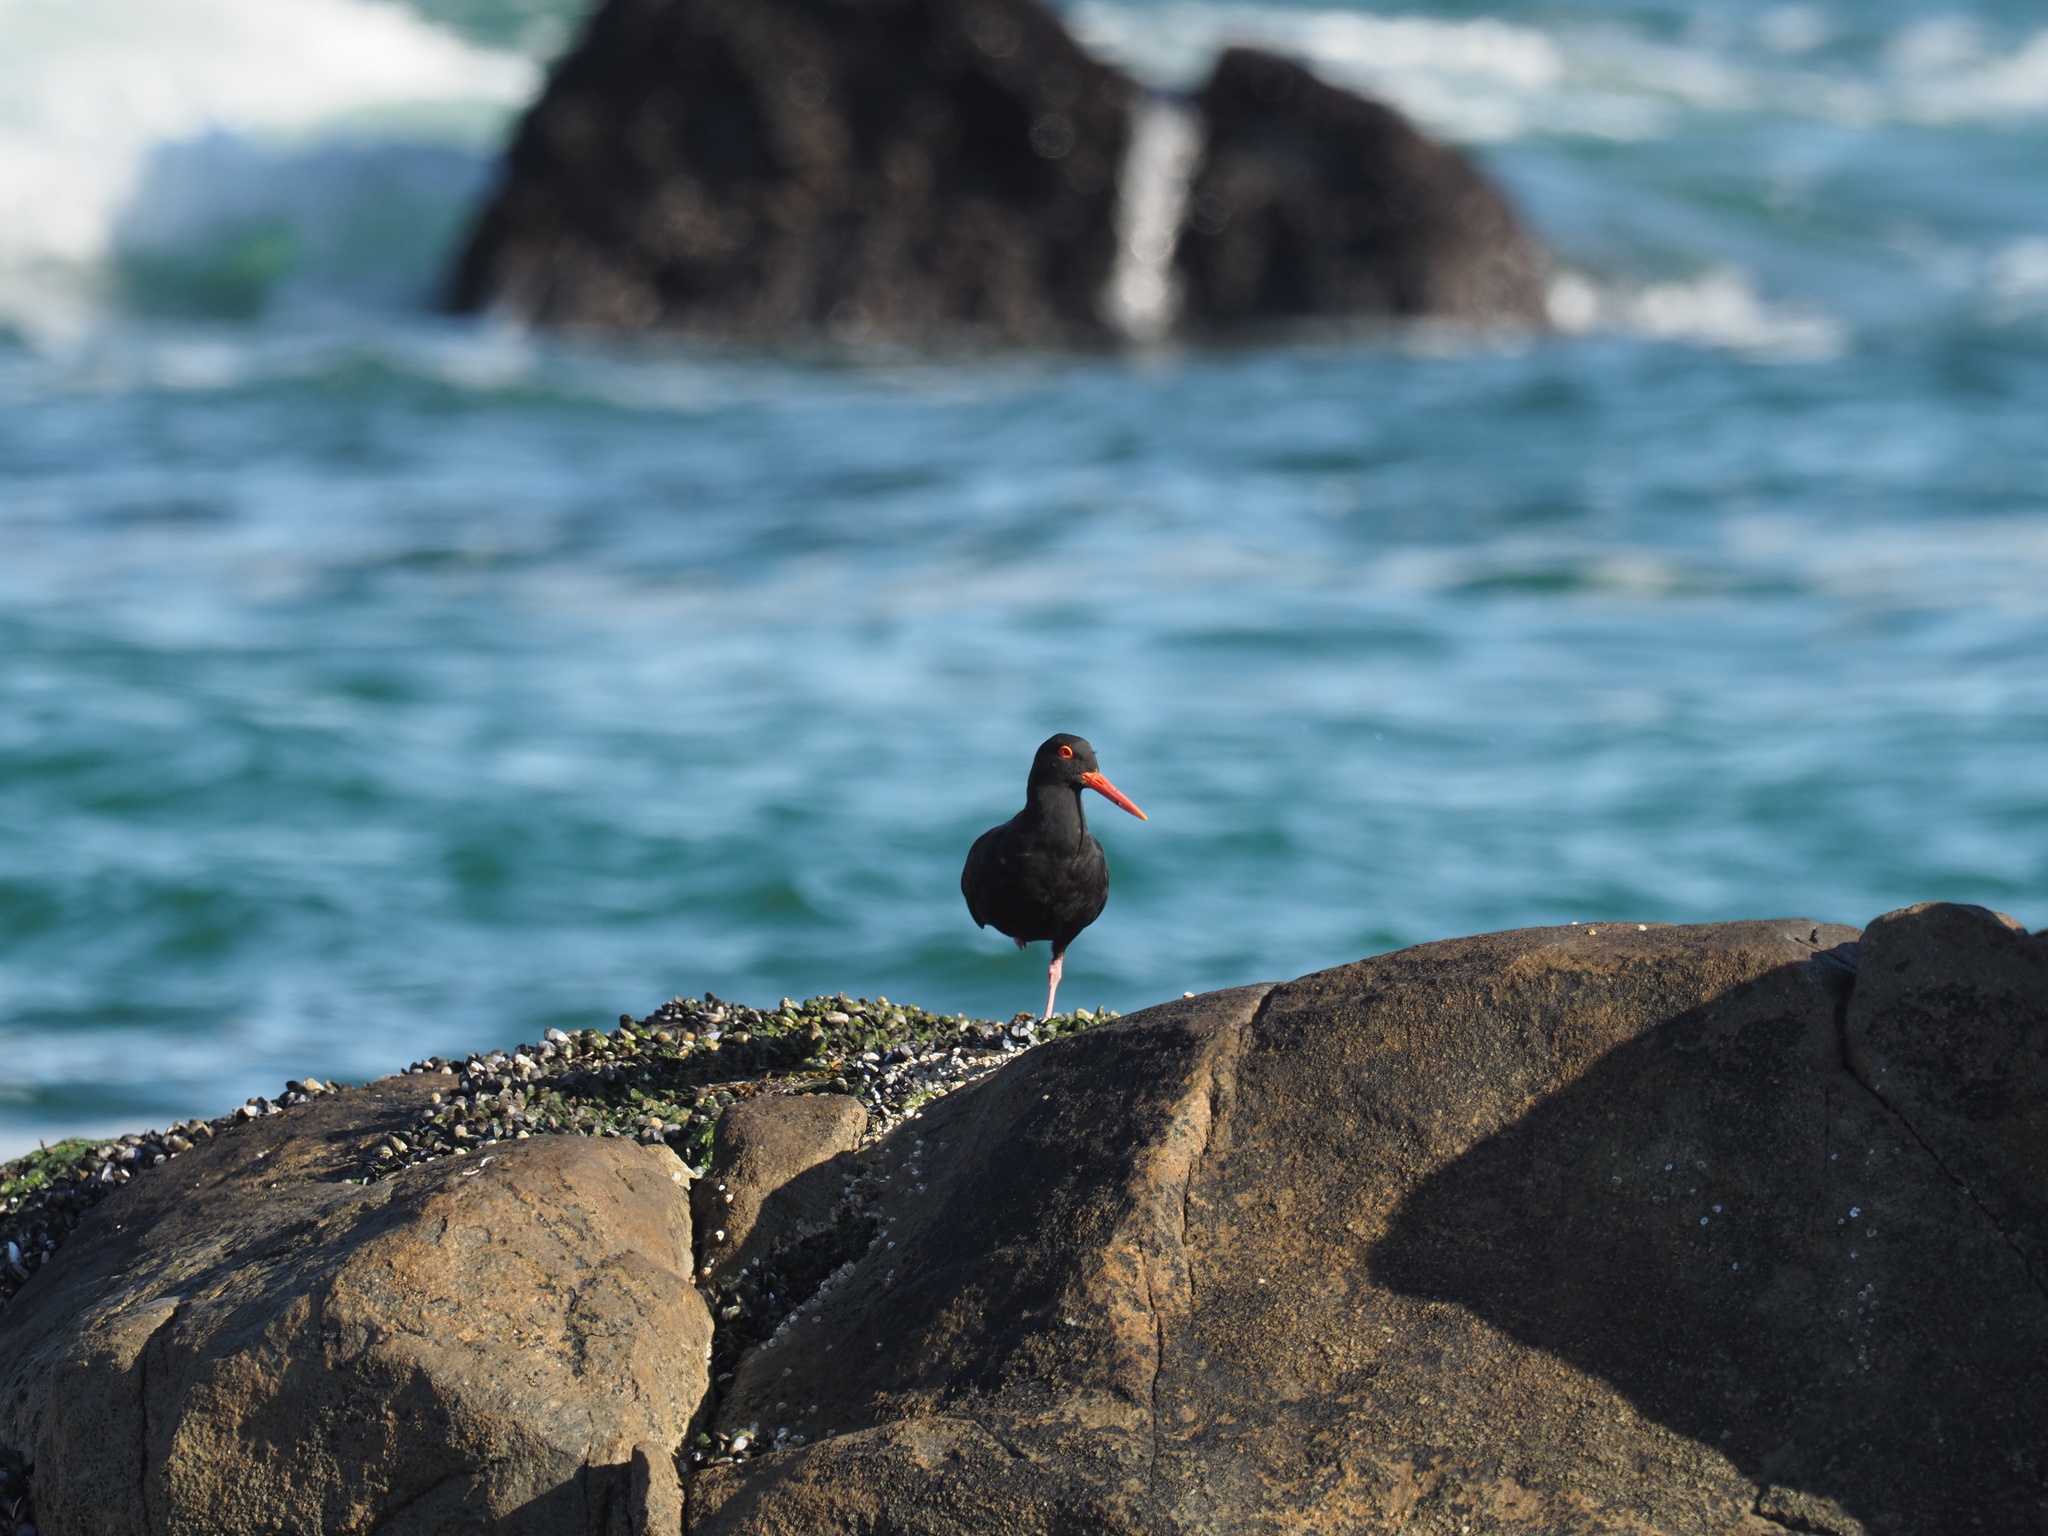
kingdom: Animalia
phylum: Chordata
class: Aves
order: Charadriiformes
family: Haematopodidae
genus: Haematopus
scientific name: Haematopus moquini
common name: African oystercatcher
